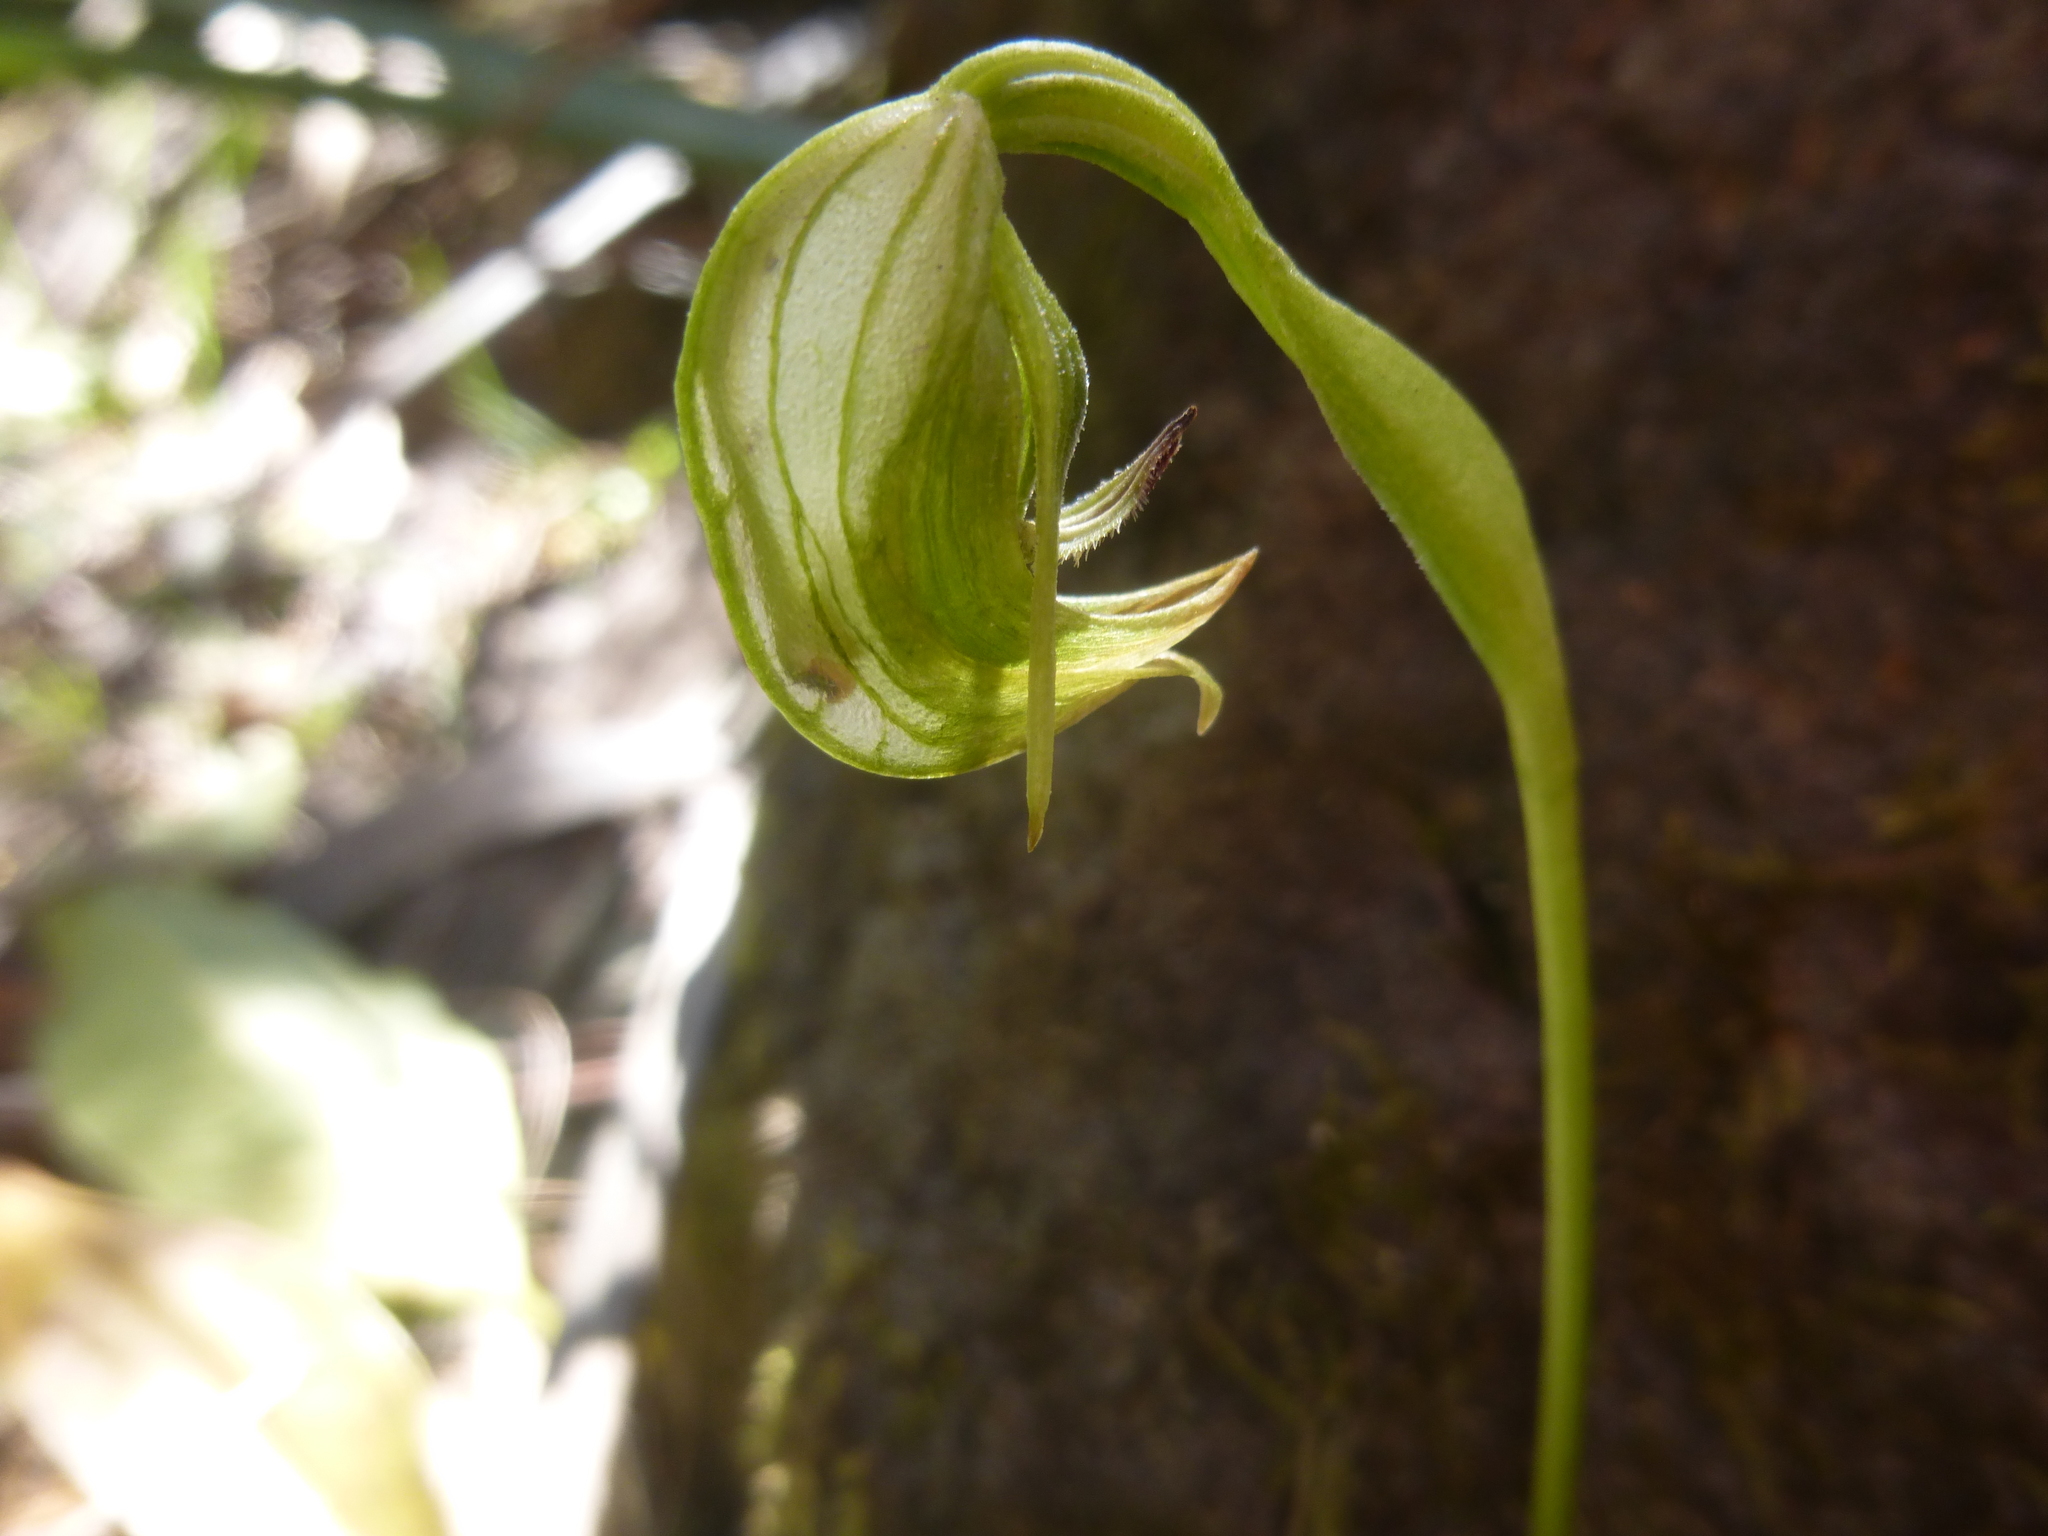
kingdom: Plantae
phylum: Tracheophyta
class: Liliopsida
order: Asparagales
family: Orchidaceae
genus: Pterostylis
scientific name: Pterostylis nutans
